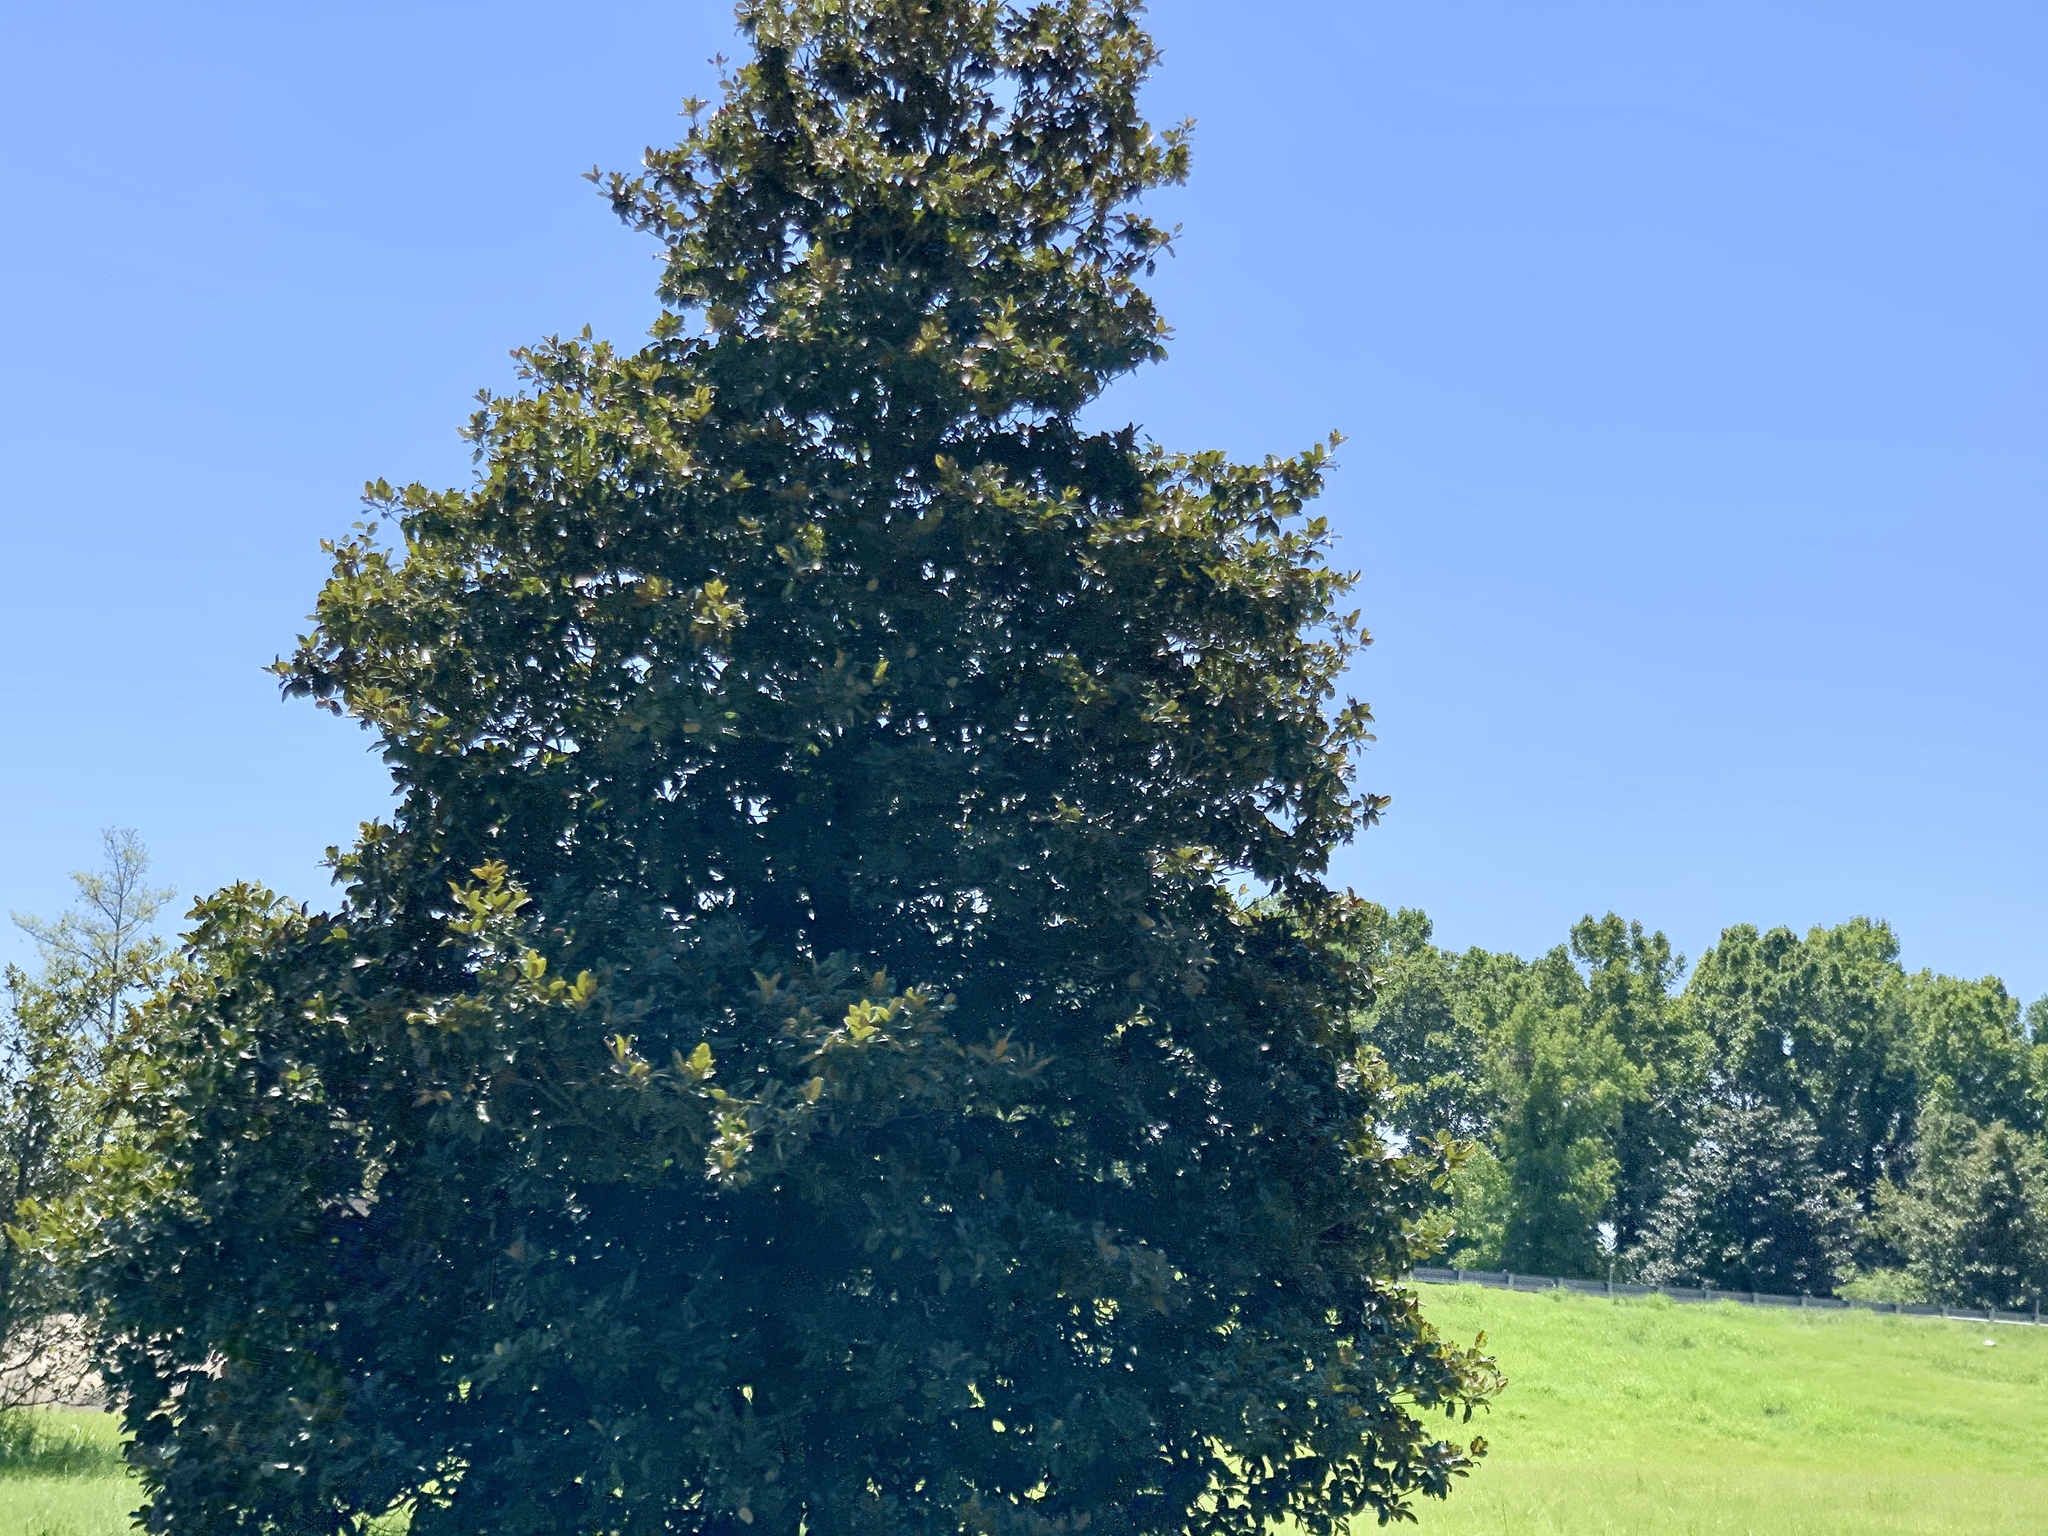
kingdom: Plantae
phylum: Tracheophyta
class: Magnoliopsida
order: Magnoliales
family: Magnoliaceae
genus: Magnolia
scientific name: Magnolia grandiflora
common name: Southern magnolia
